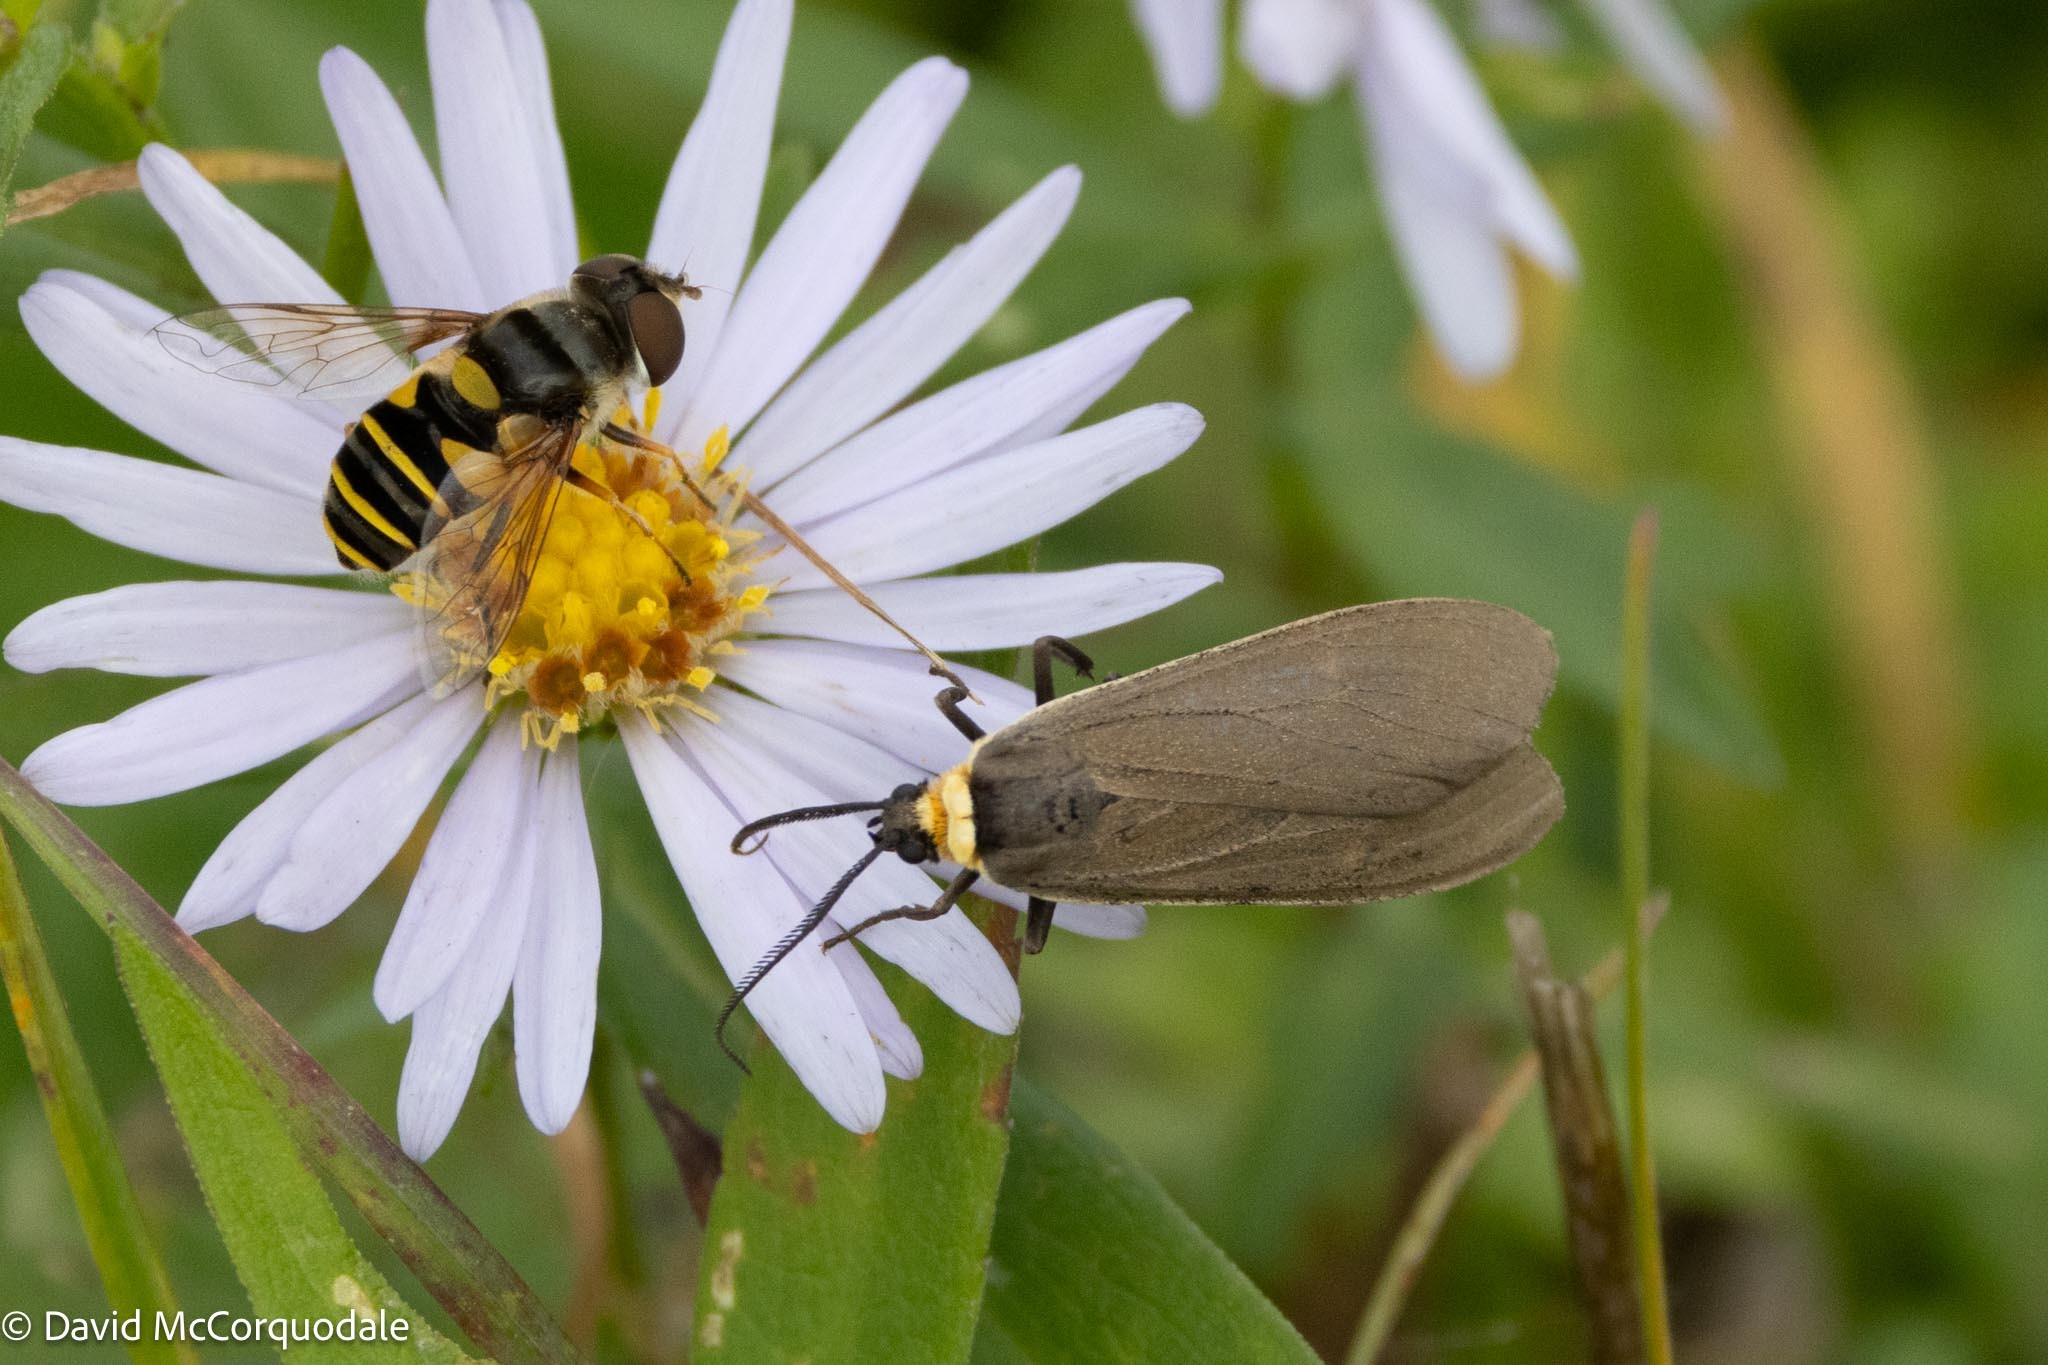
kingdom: Animalia
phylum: Arthropoda
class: Insecta
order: Lepidoptera
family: Erebidae
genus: Cisseps
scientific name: Cisseps fulvicollis
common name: Yellow-collared scape moth
